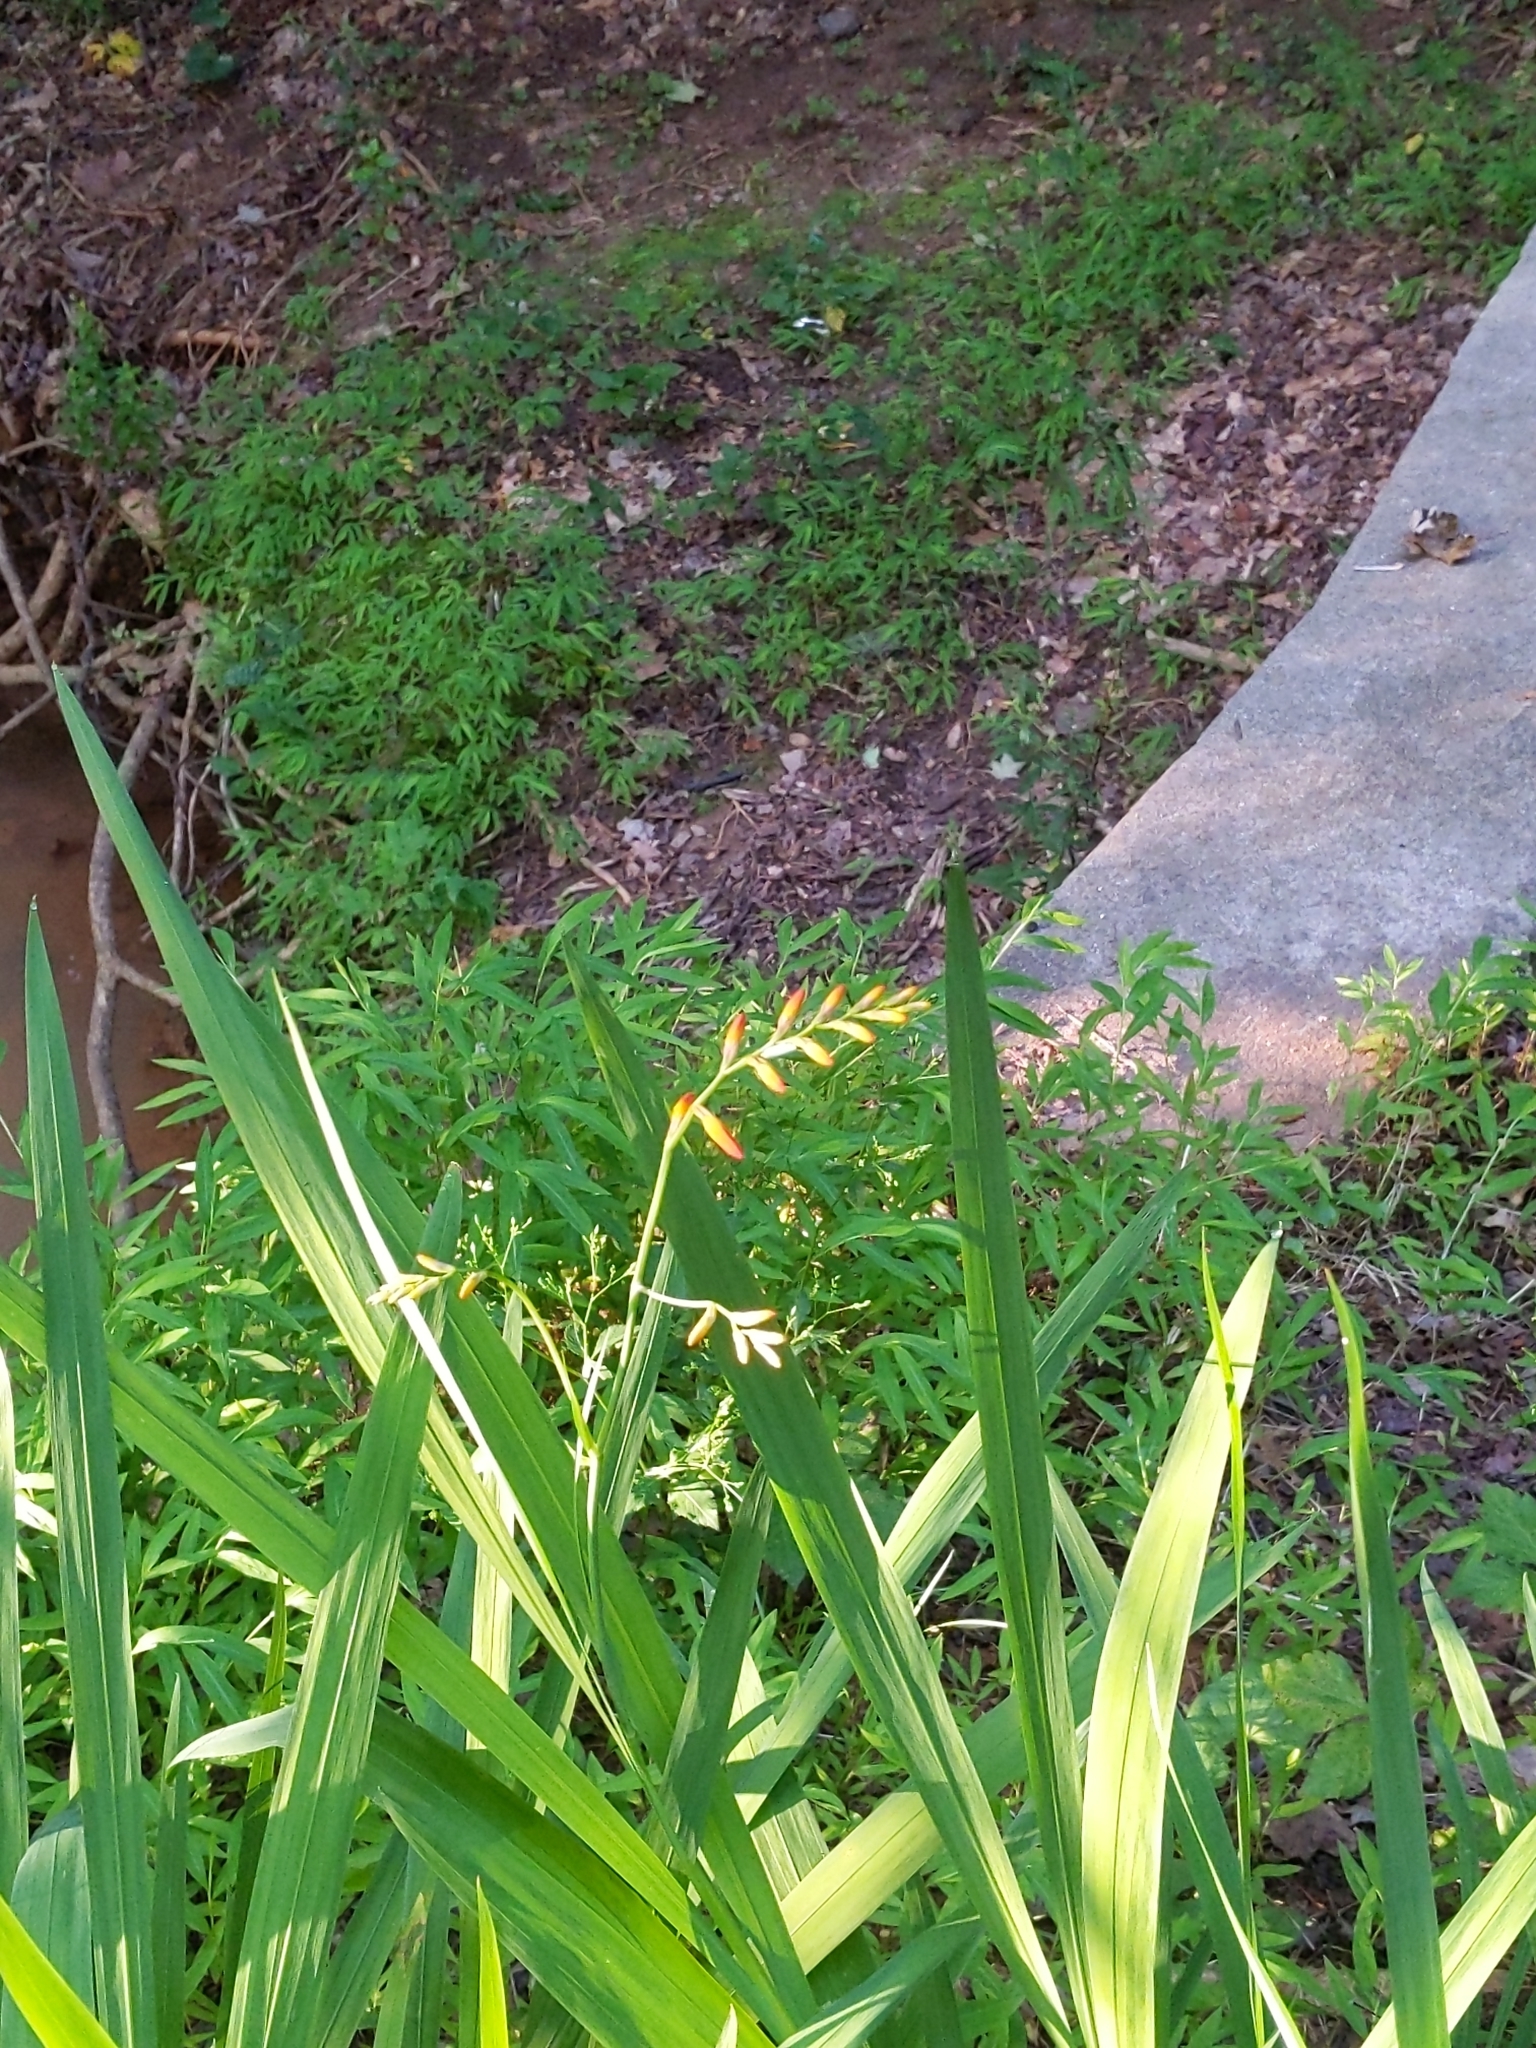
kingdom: Plantae
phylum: Tracheophyta
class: Liliopsida
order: Asparagales
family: Iridaceae
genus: Crocosmia
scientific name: Crocosmia crocosmiiflora
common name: Montbretia
